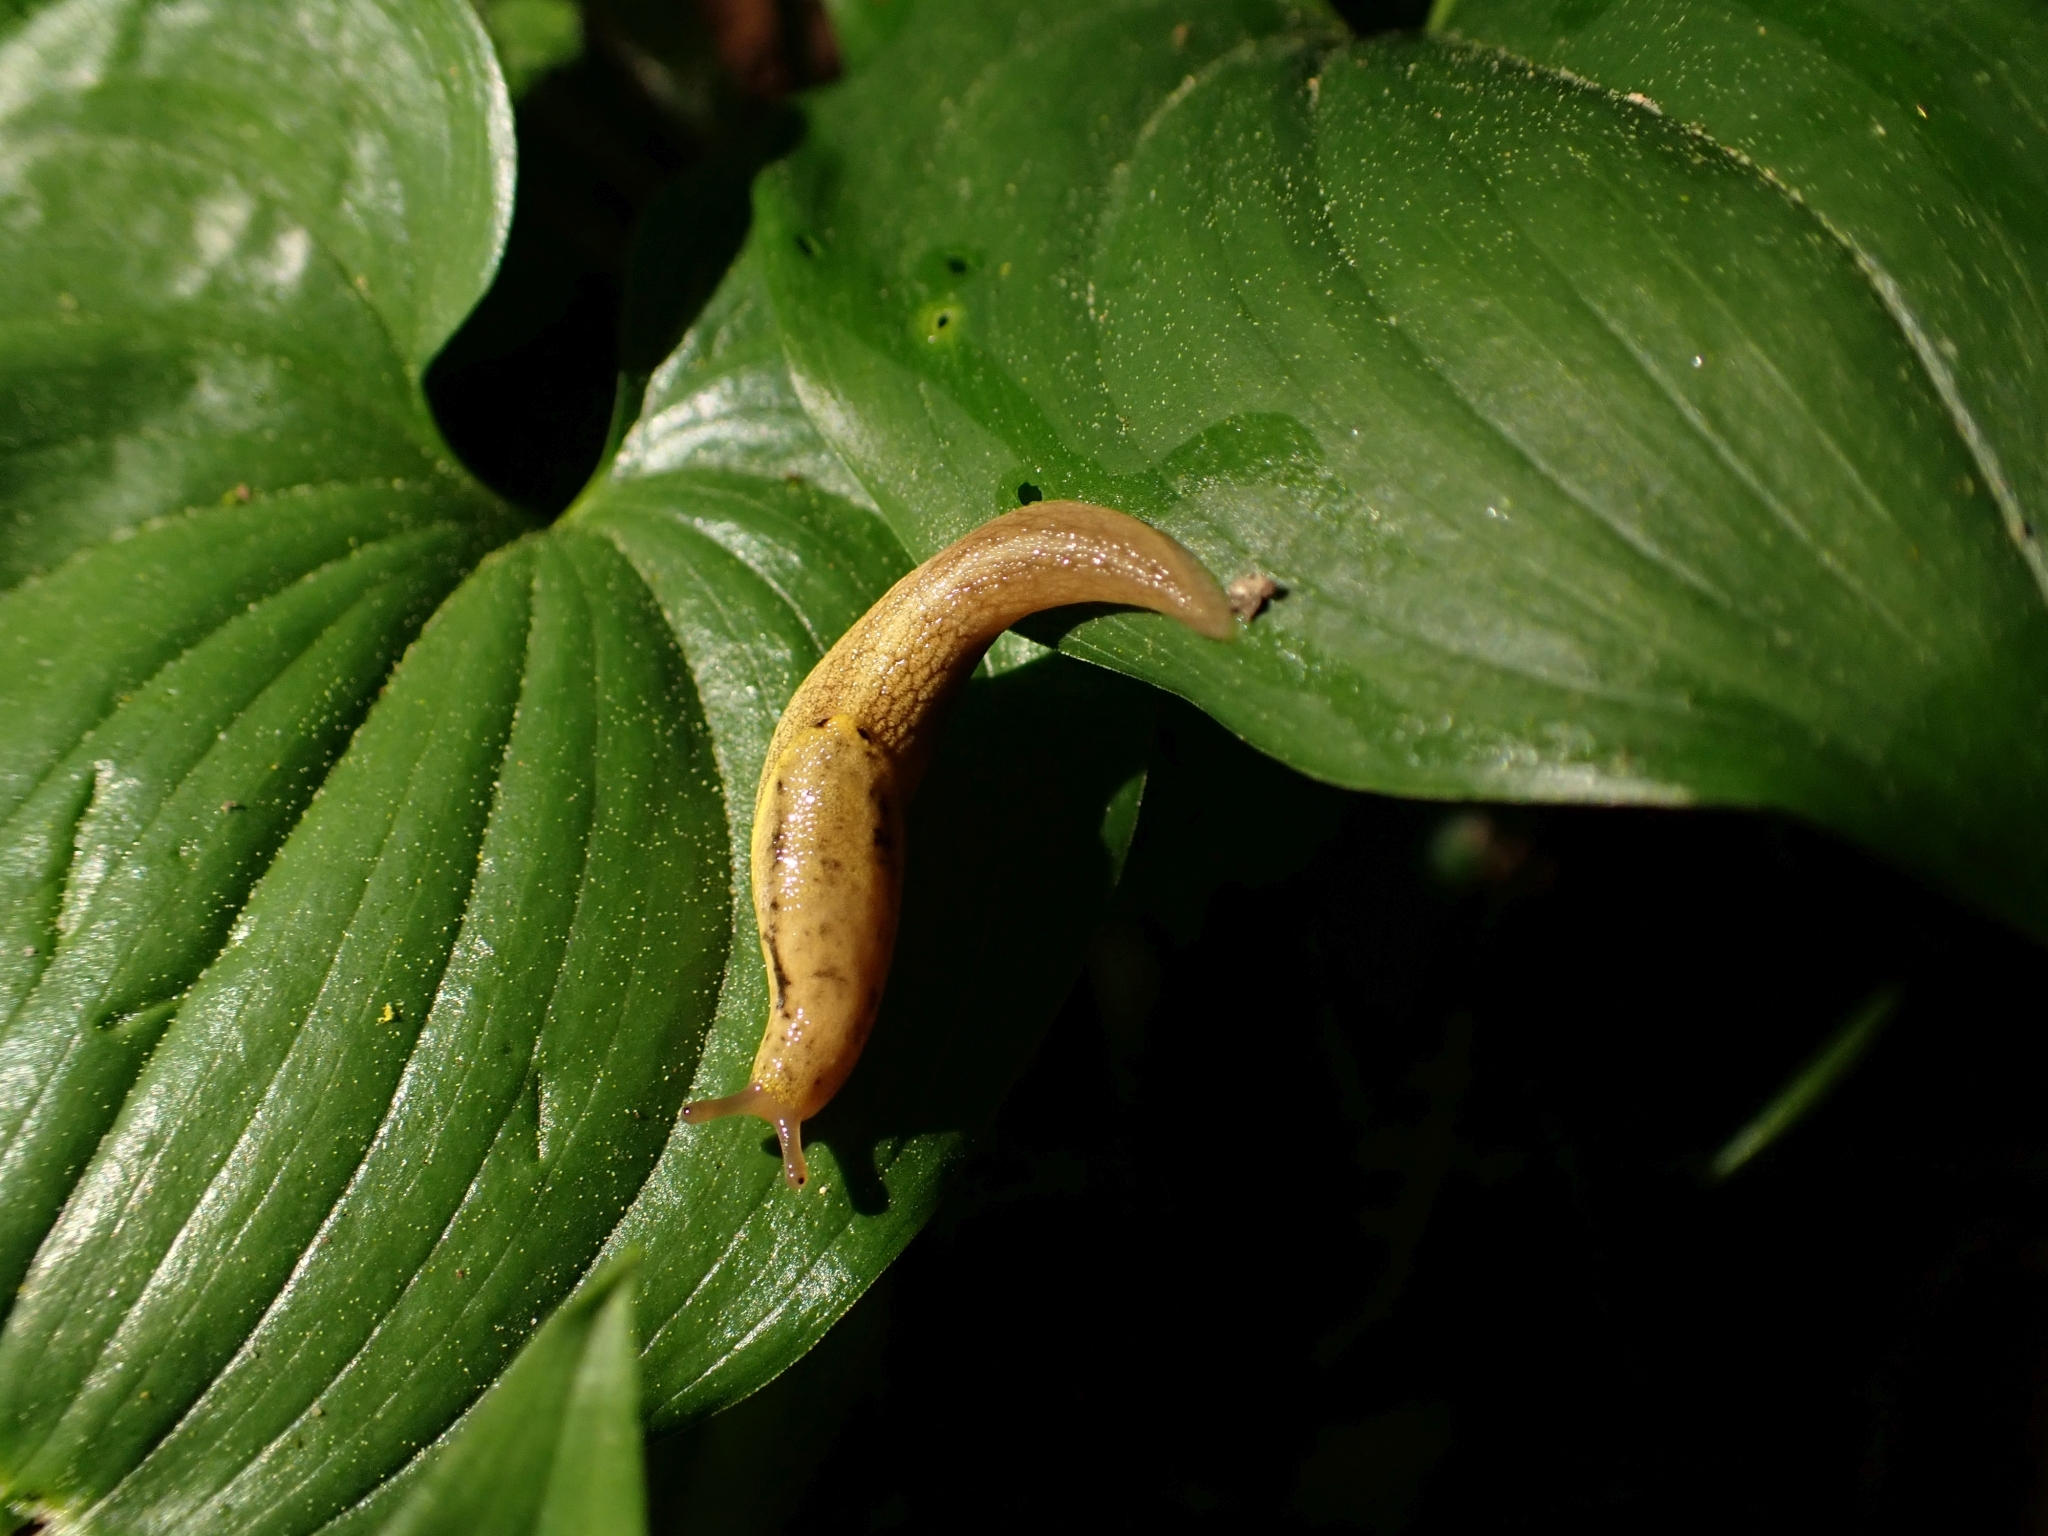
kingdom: Animalia
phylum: Mollusca
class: Gastropoda
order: Stylommatophora
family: Ariolimacidae
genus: Prophysaon
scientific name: Prophysaon foliolatum
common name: Yellow-bordered taildropper
